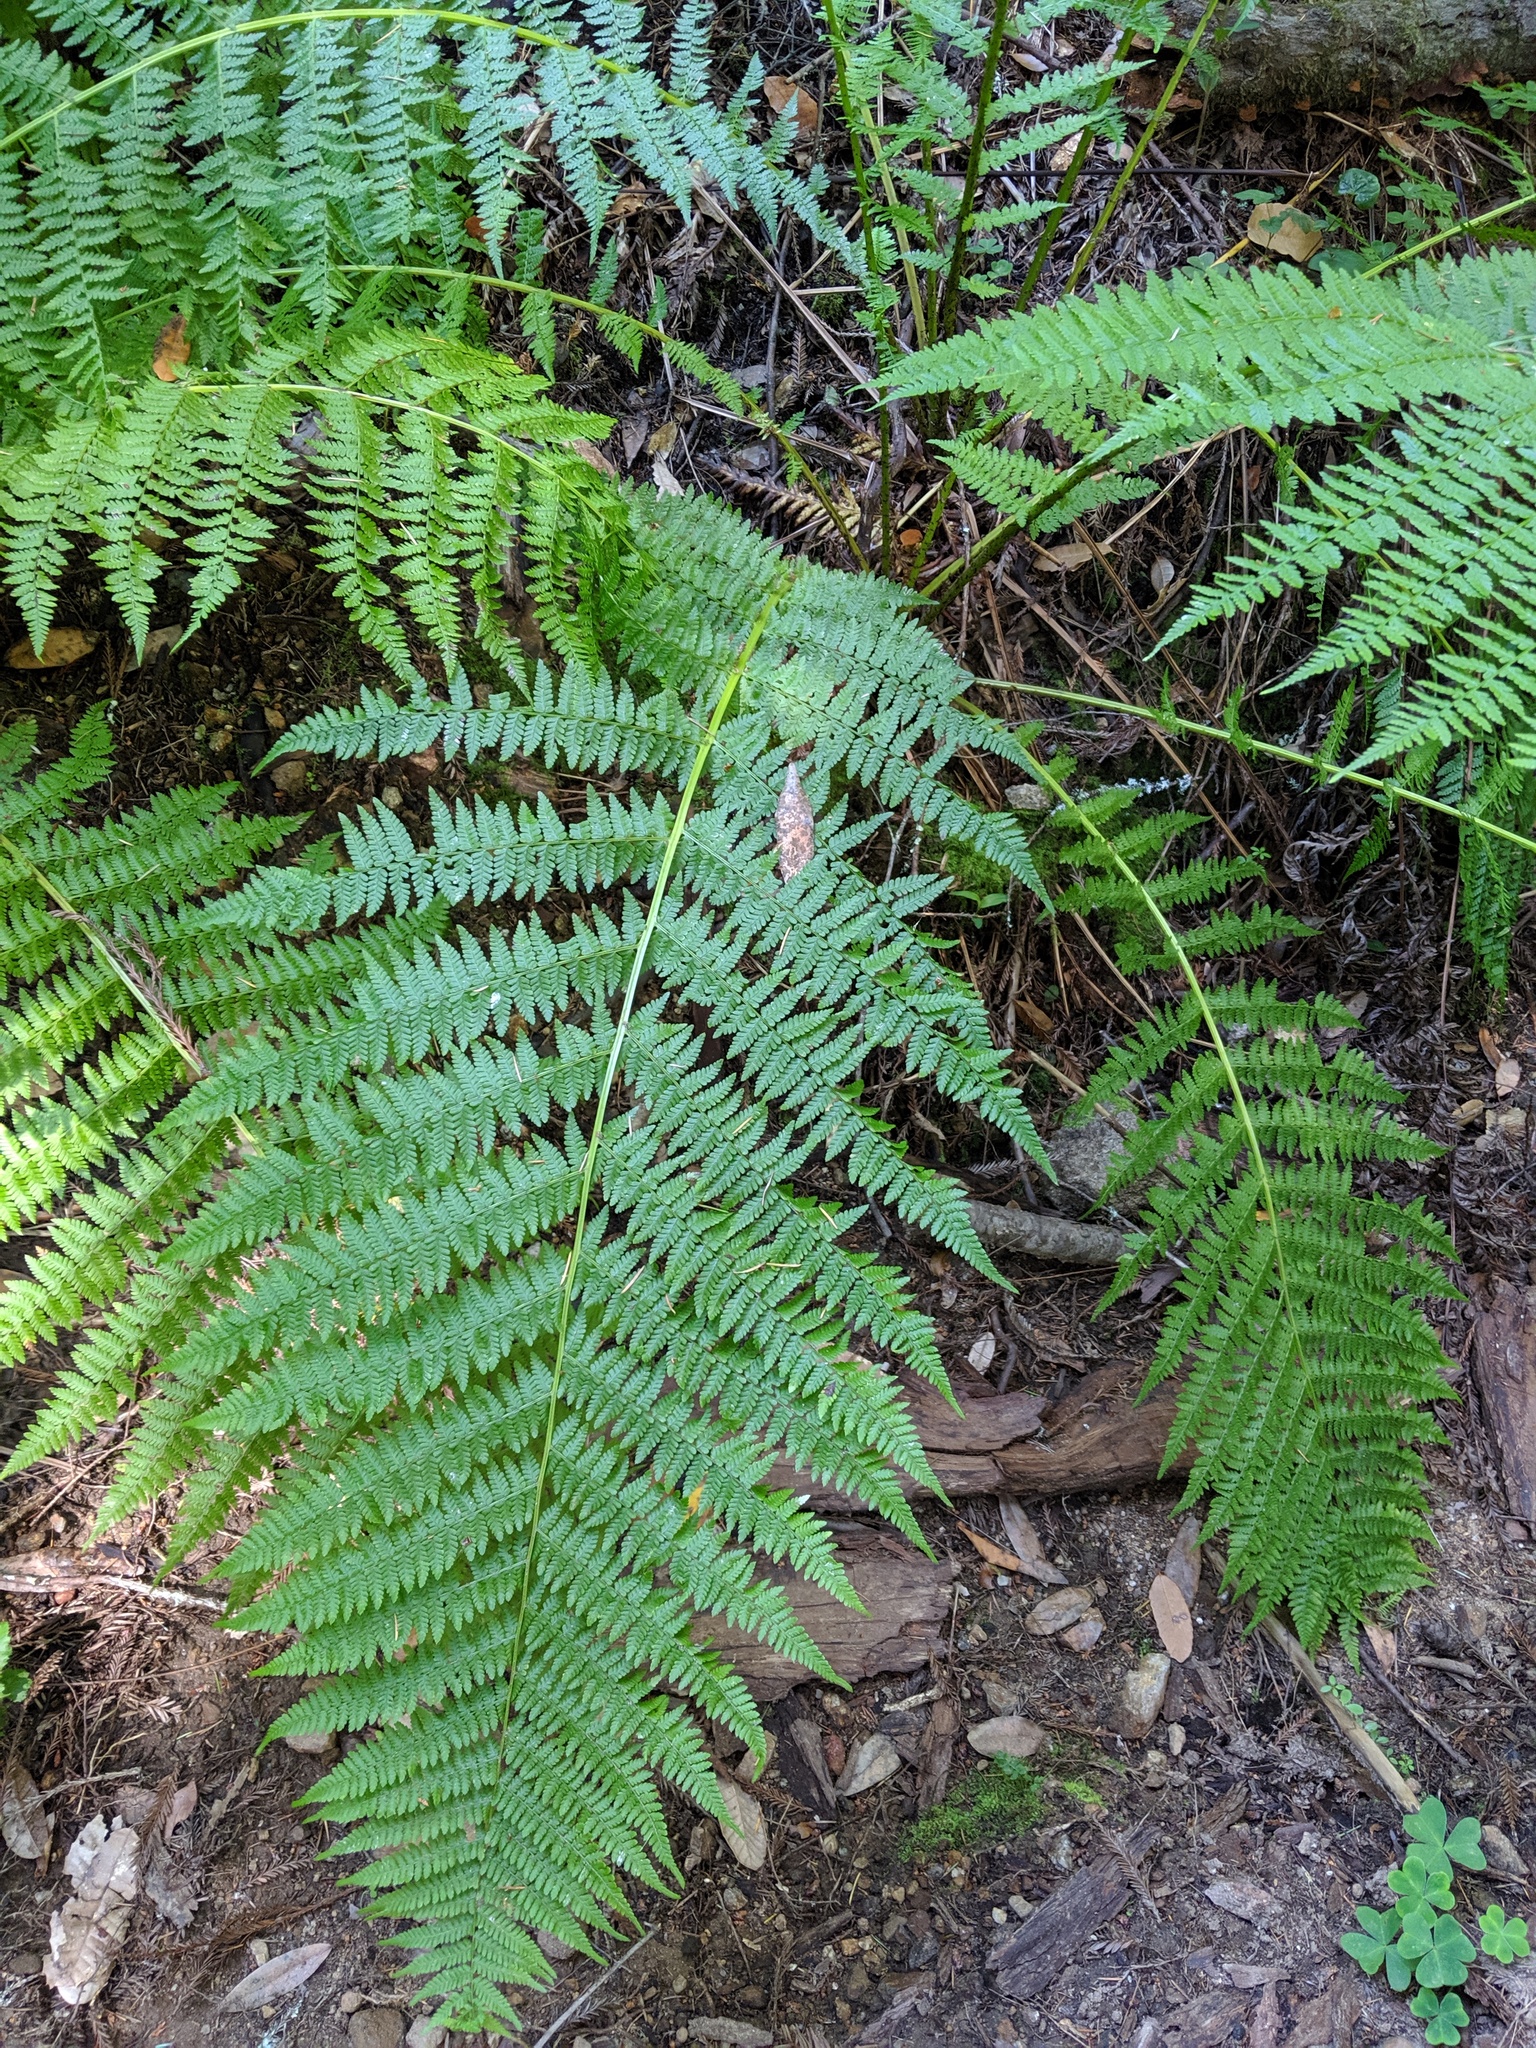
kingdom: Plantae
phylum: Tracheophyta
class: Polypodiopsida
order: Polypodiales
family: Athyriaceae
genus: Athyrium
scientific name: Athyrium filix-femina
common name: Lady fern
